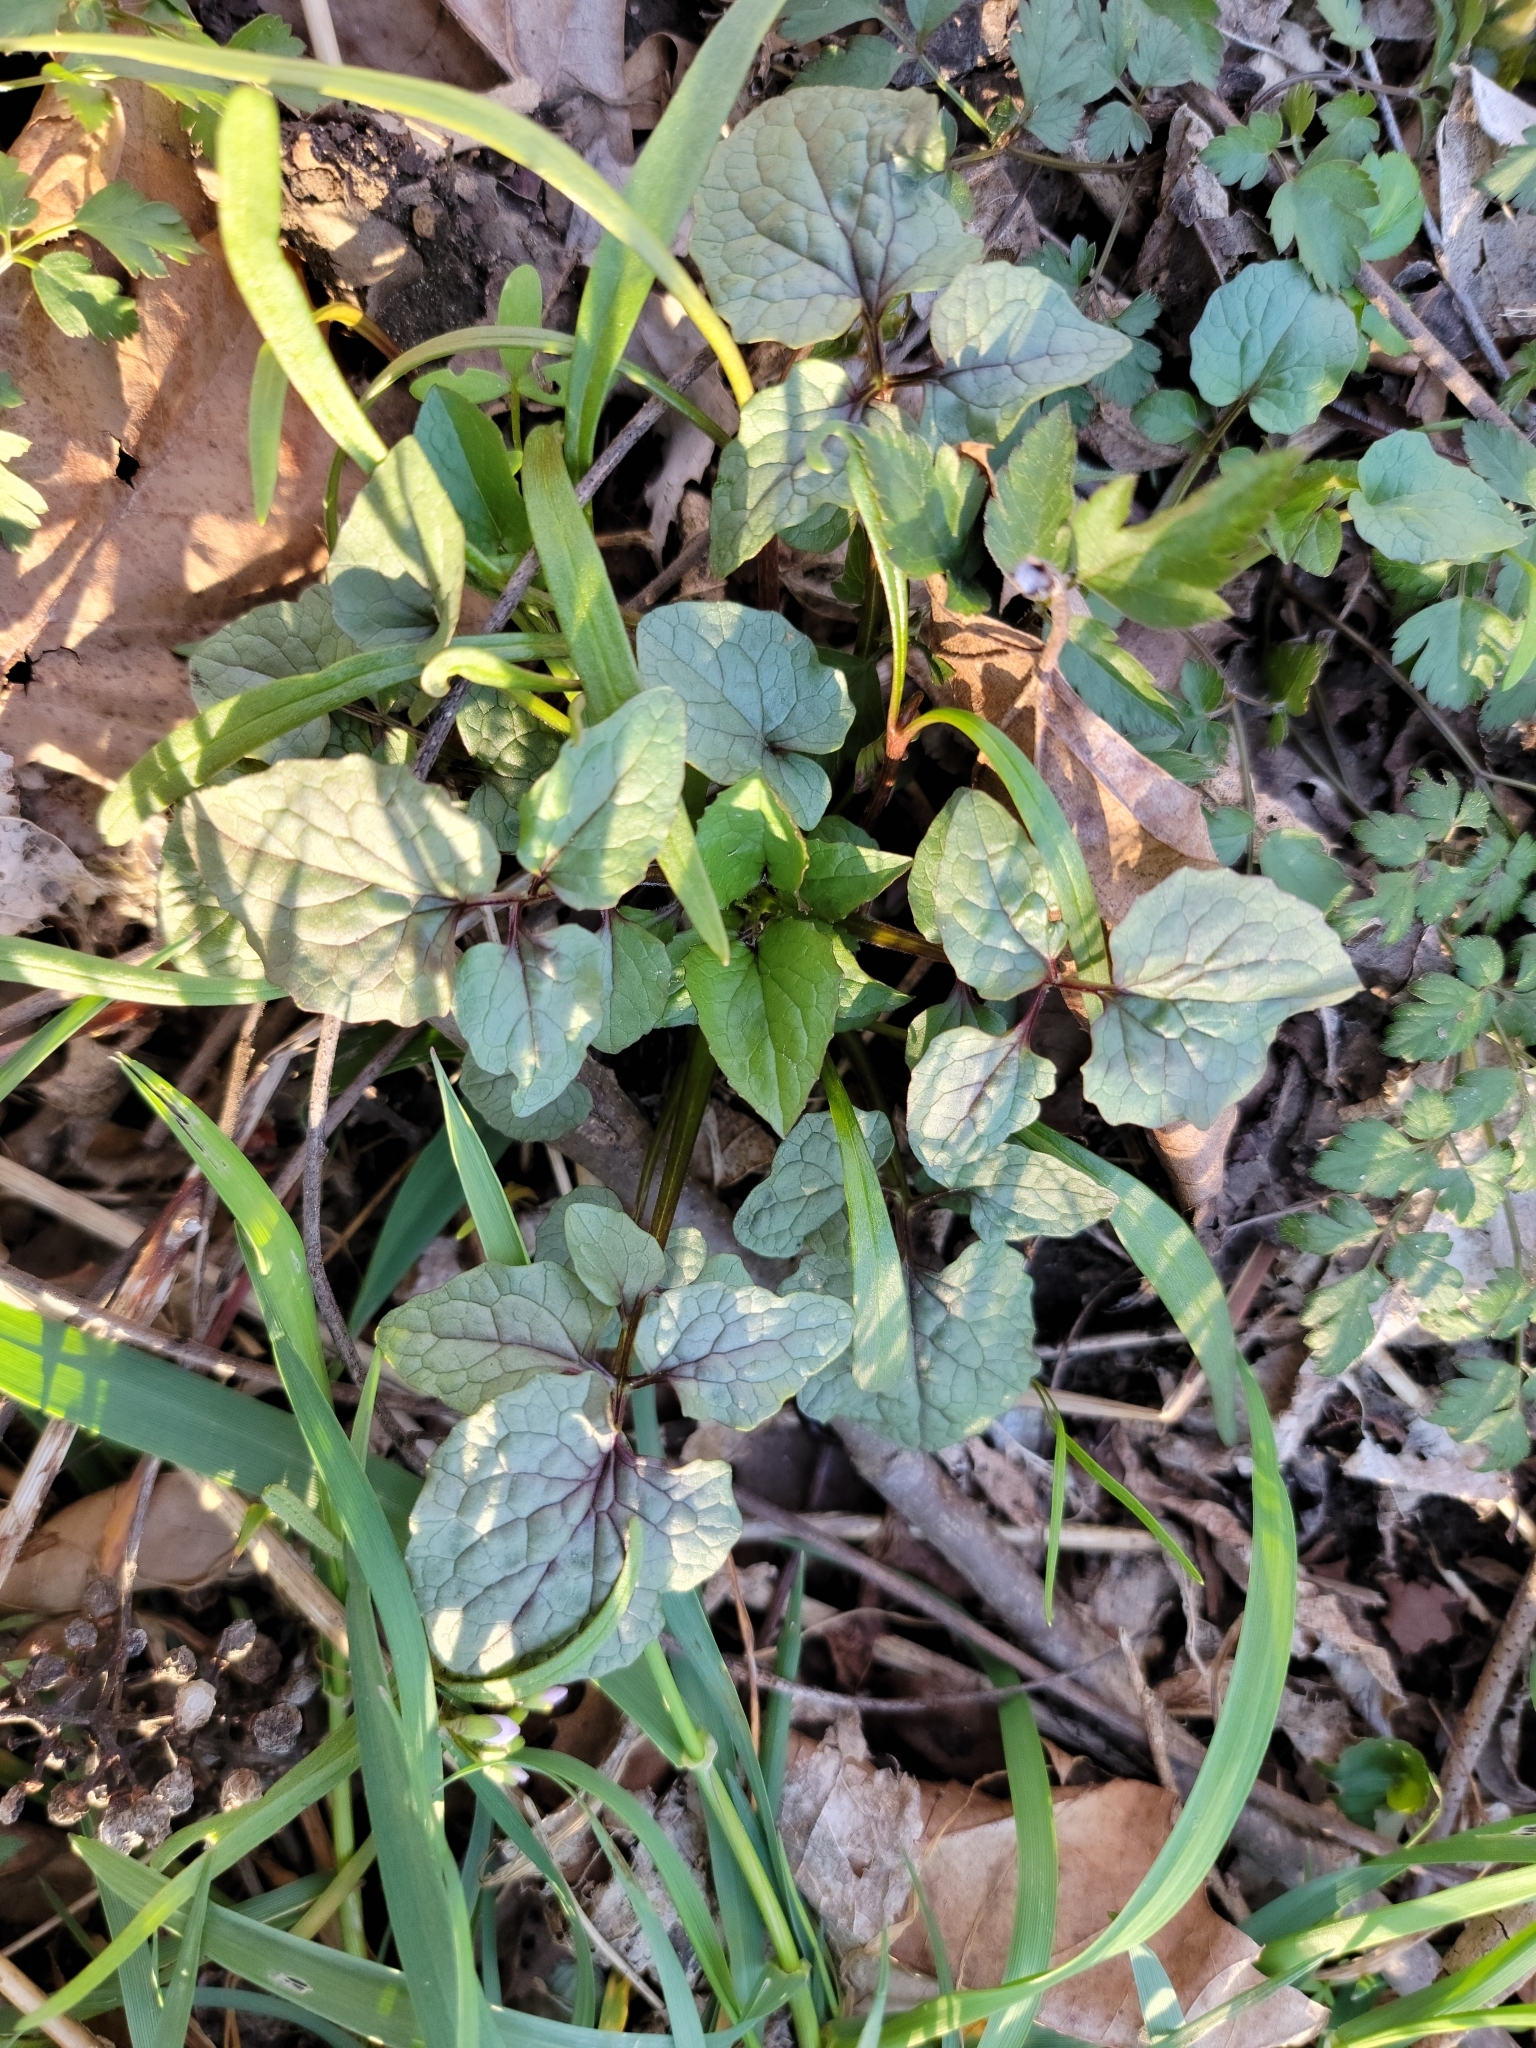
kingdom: Plantae
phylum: Tracheophyta
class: Magnoliopsida
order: Dipsacales
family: Caprifoliaceae
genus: Valeriana
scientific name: Valeriana pauciflora
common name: Long-tube valeriana
